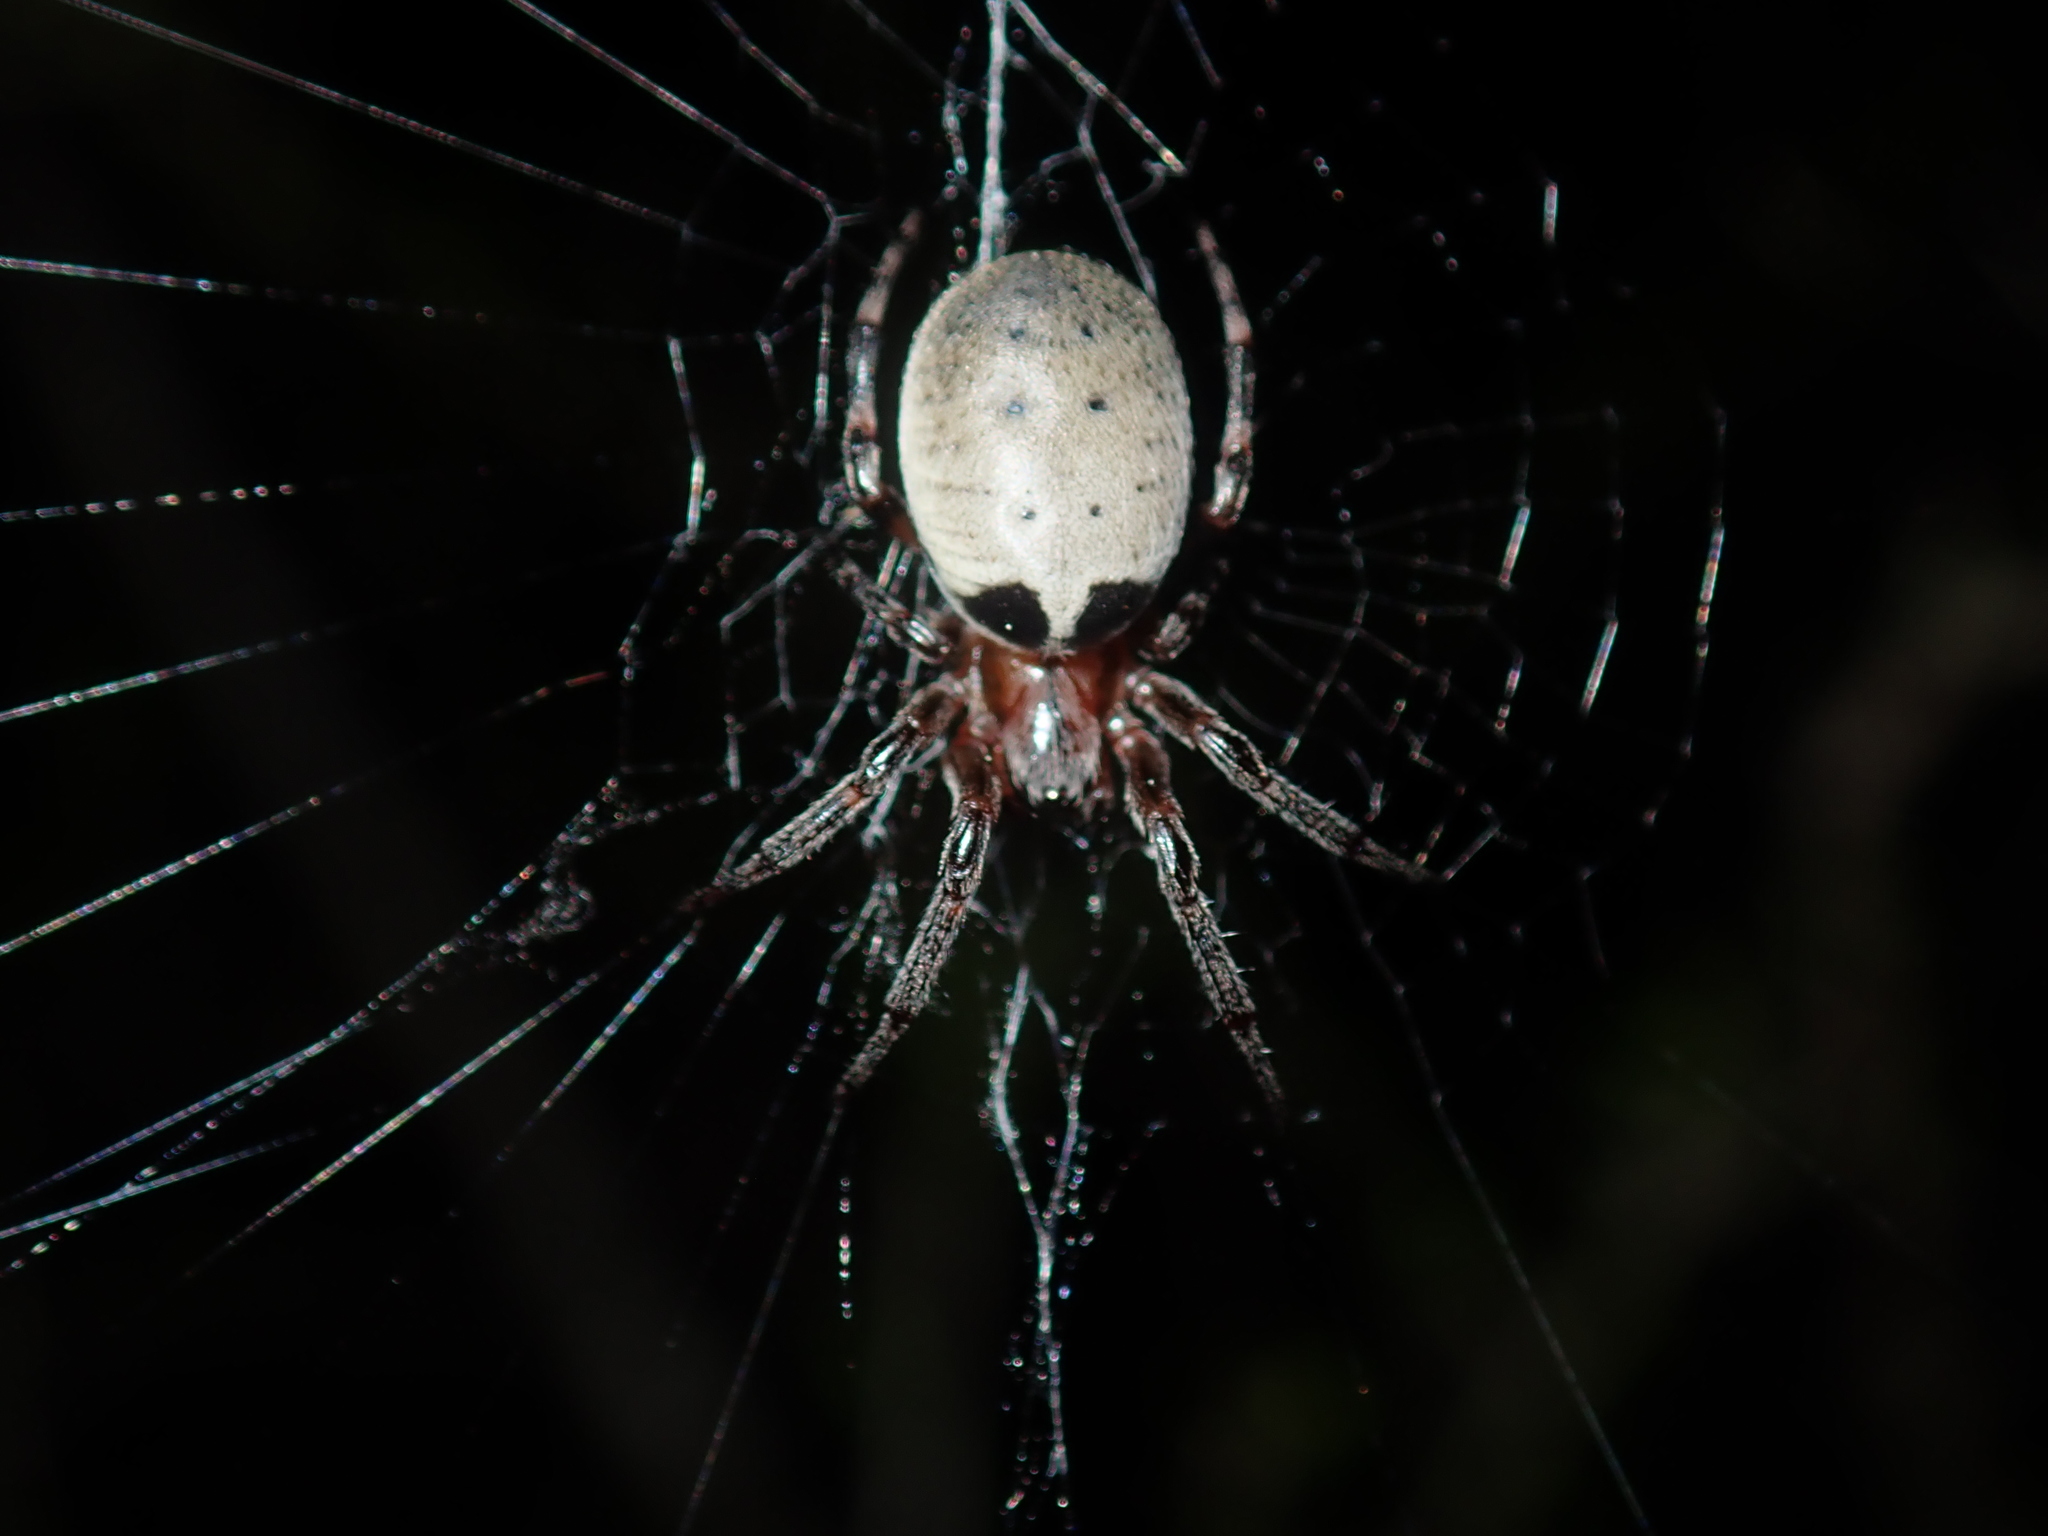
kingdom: Animalia
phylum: Arthropoda
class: Arachnida
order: Araneae
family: Araneidae
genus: Araneus
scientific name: Araneus dimidiatus
